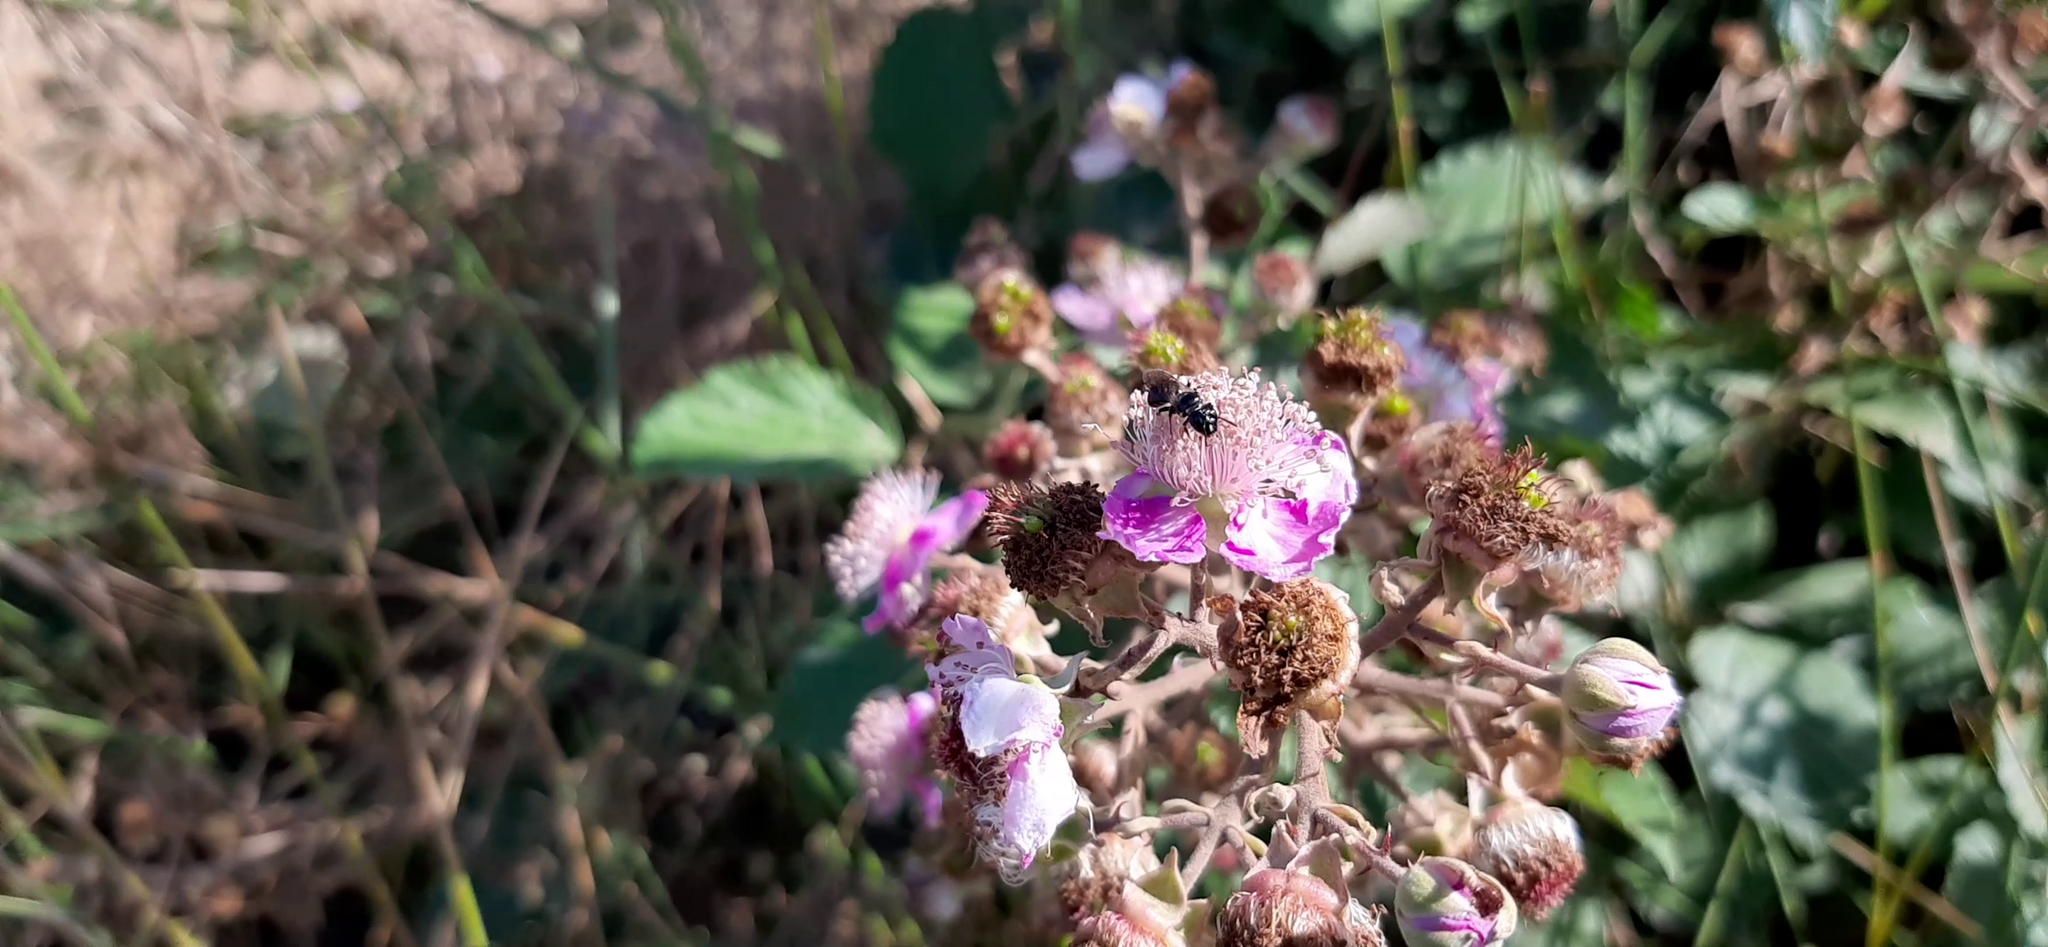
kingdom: Animalia
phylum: Arthropoda
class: Insecta
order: Hymenoptera
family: Apidae
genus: Ceratina
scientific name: Ceratina cucurbitina
